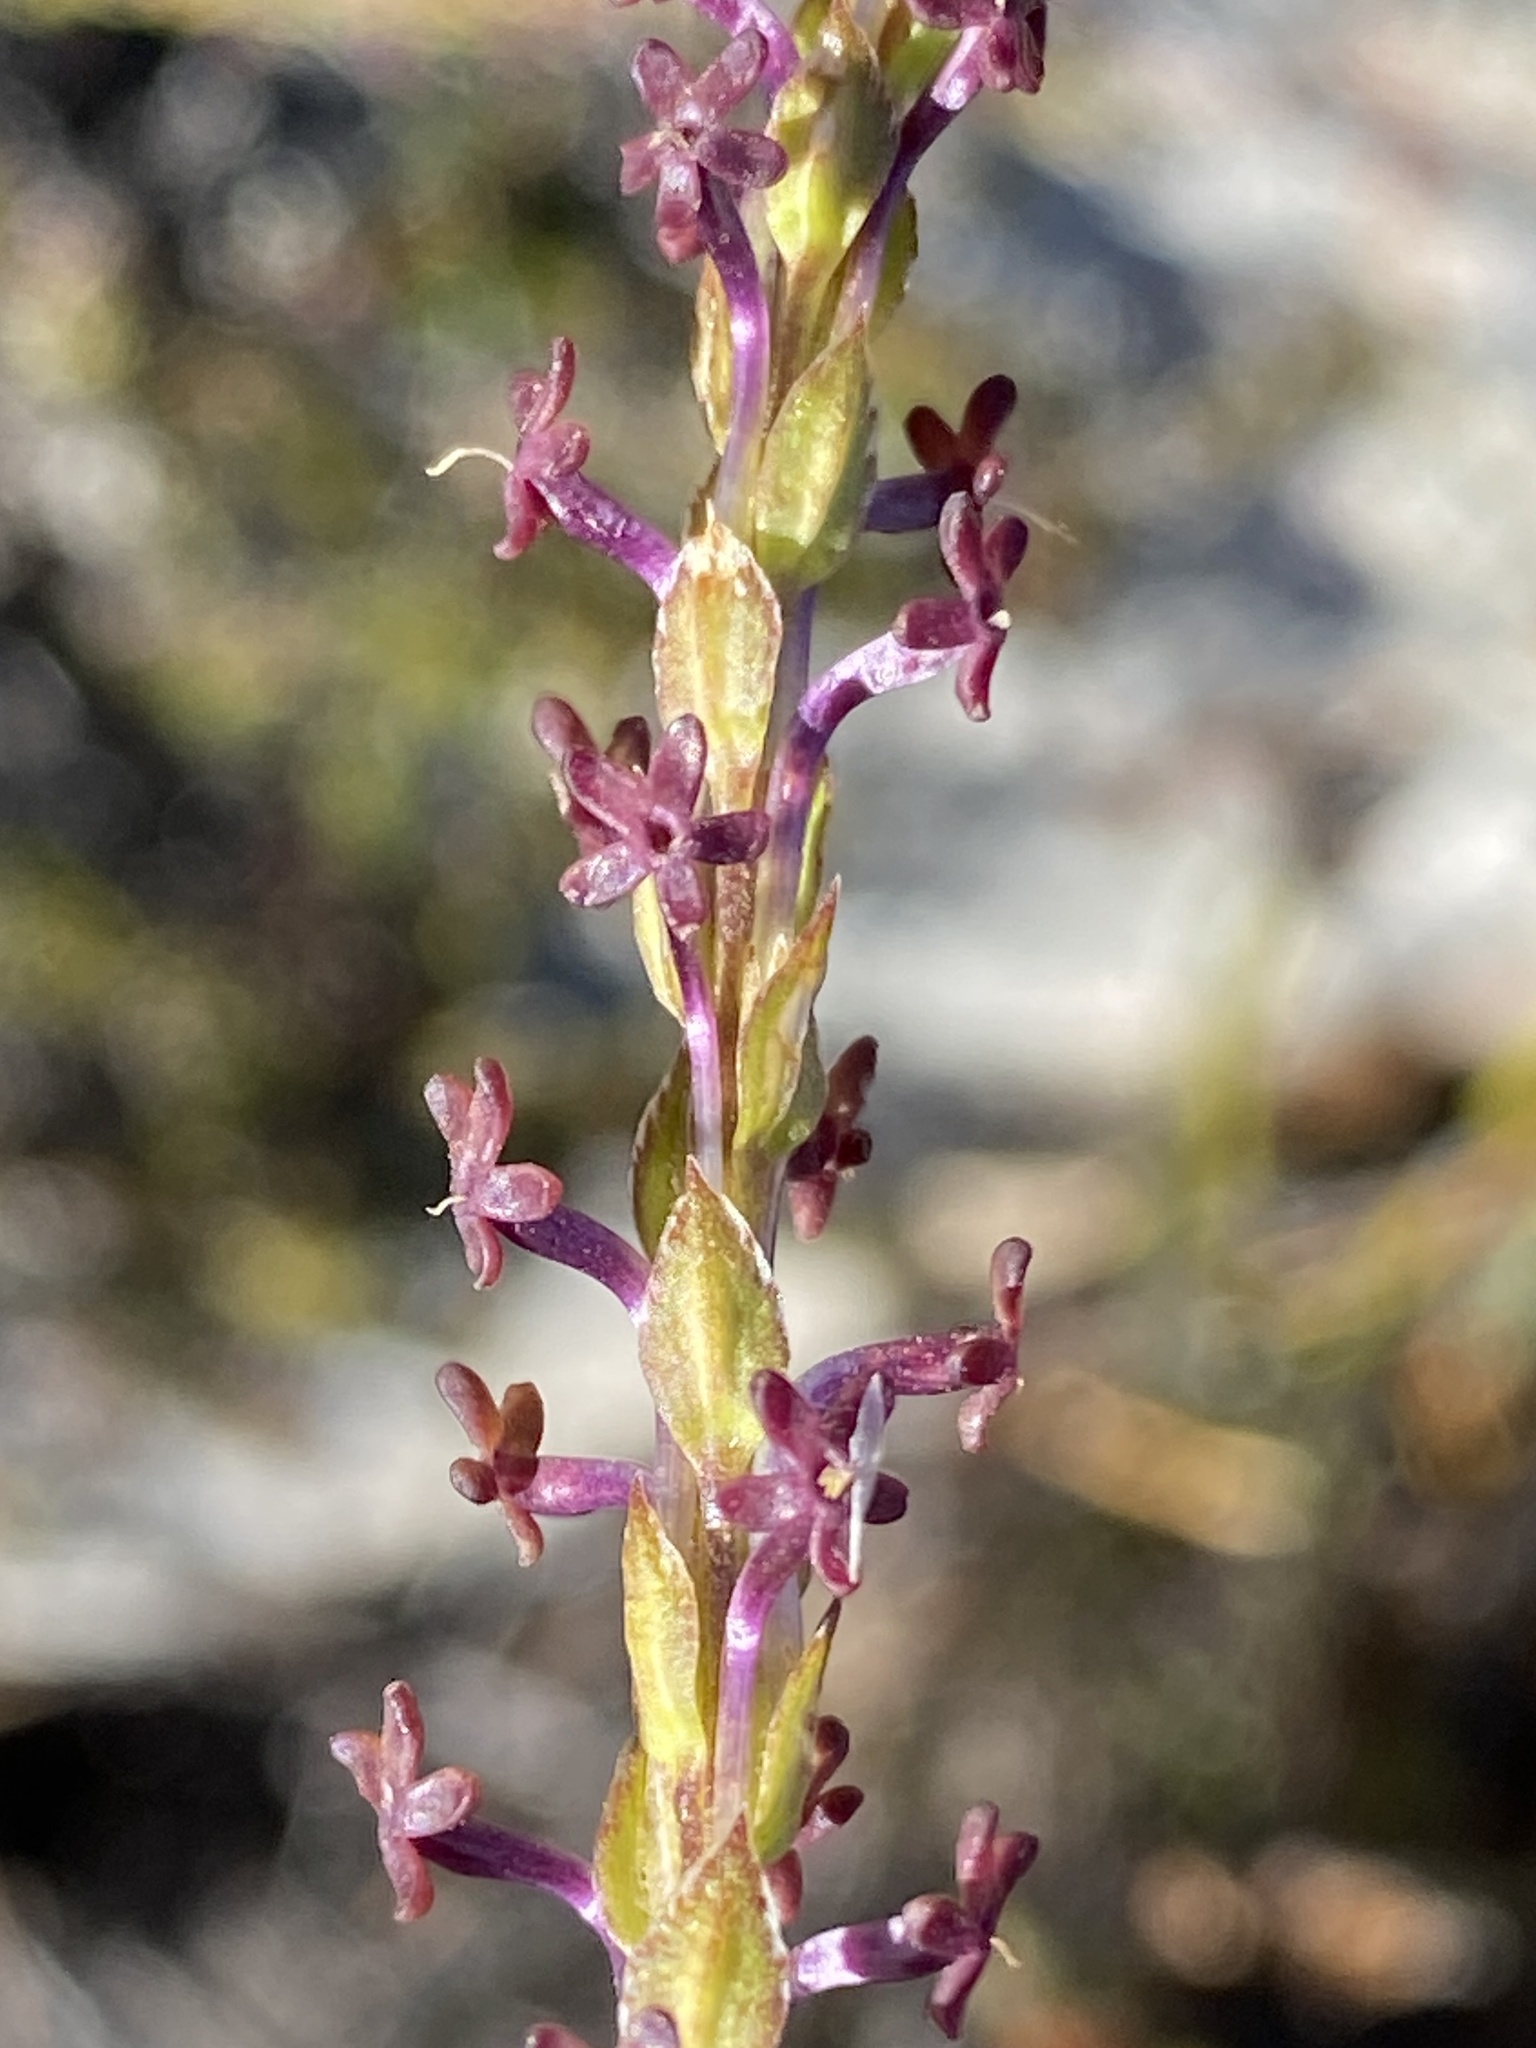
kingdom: Plantae
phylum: Tracheophyta
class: Magnoliopsida
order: Lamiales
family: Scrophulariaceae
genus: Microdon
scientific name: Microdon dubius
